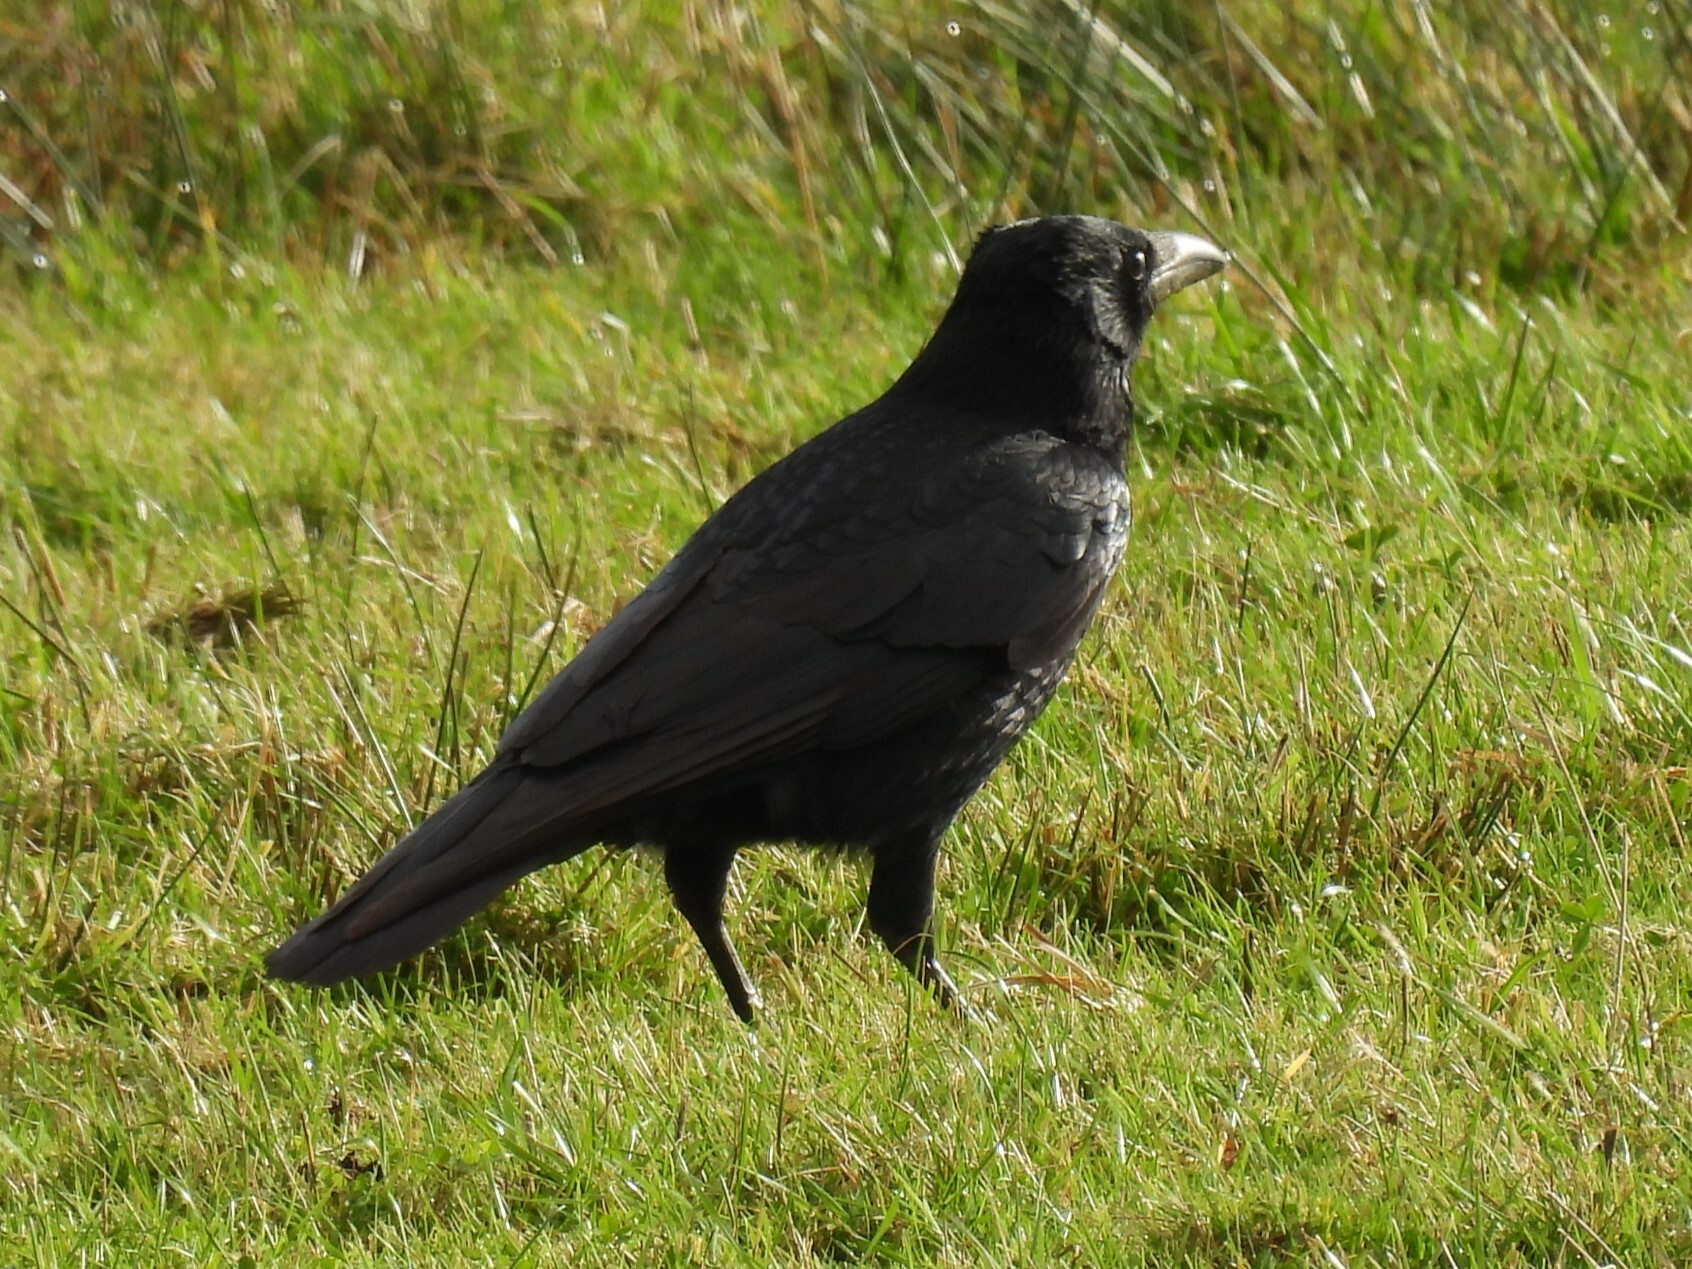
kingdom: Animalia
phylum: Chordata
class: Aves
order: Passeriformes
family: Corvidae
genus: Corvus
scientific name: Corvus corone
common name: Carrion crow
